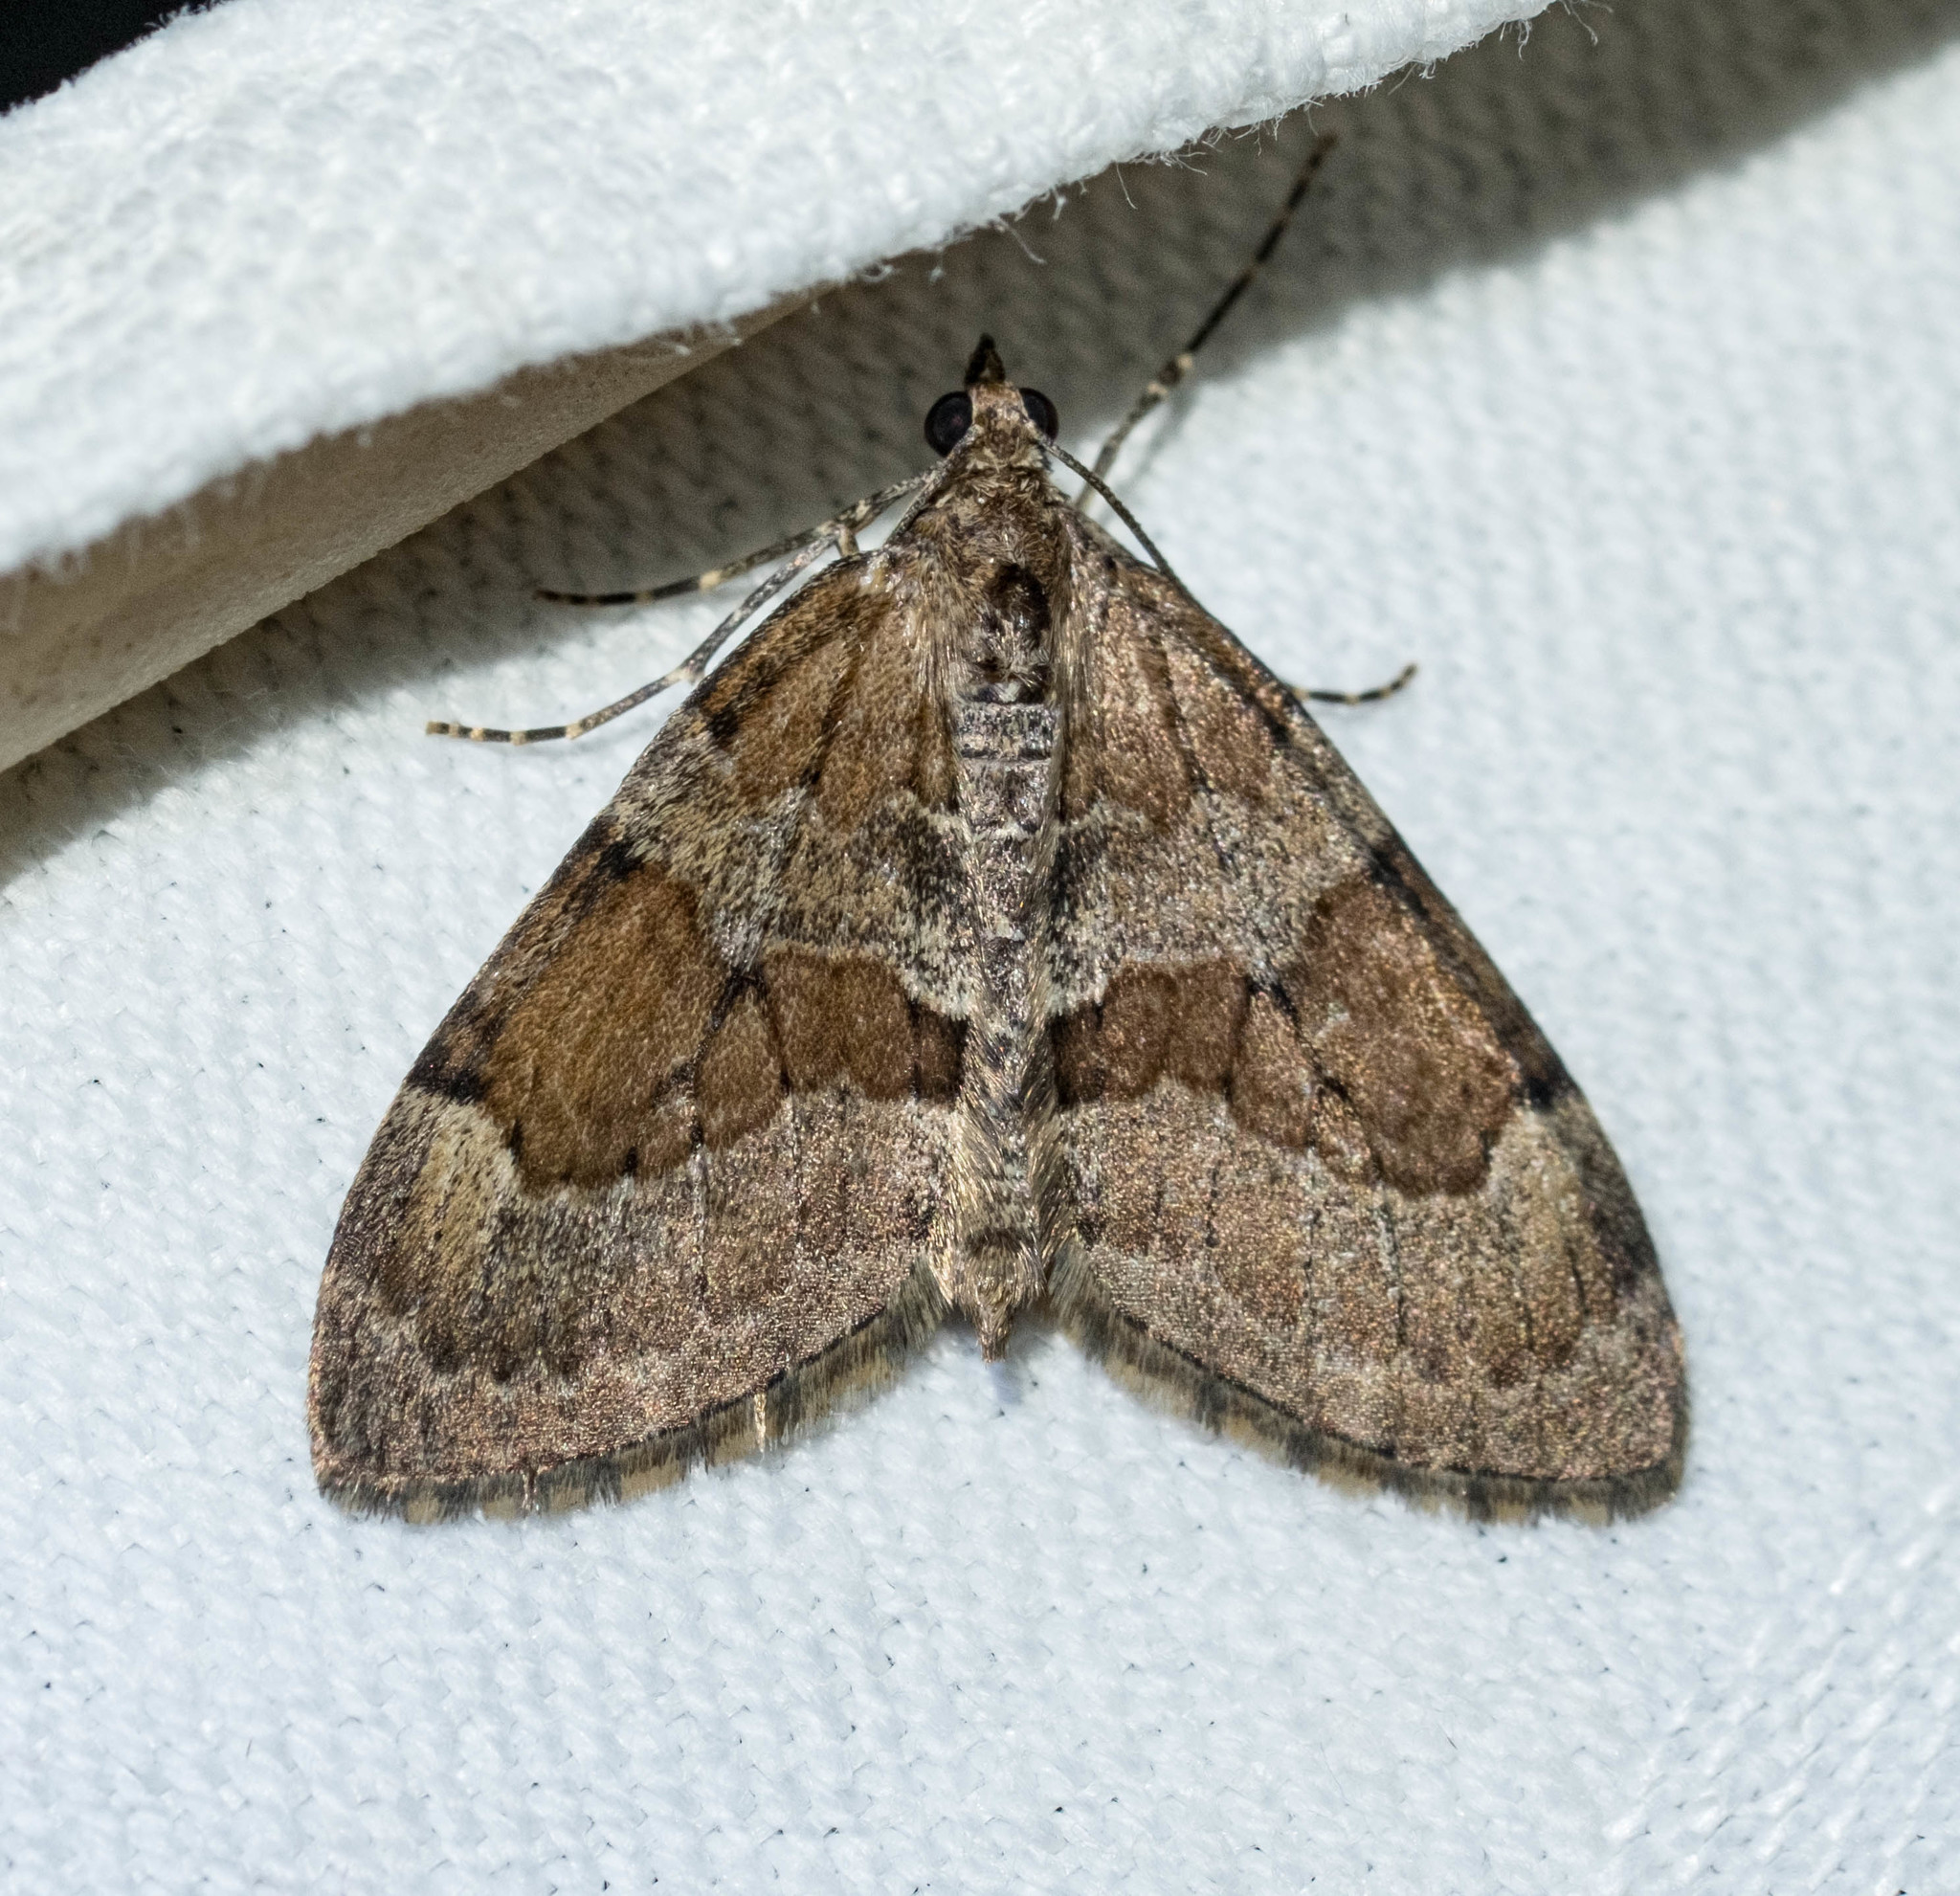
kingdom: Animalia
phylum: Arthropoda
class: Insecta
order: Lepidoptera
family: Geometridae
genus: Thera
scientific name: Thera obeliscata
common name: Grey pine carpet
